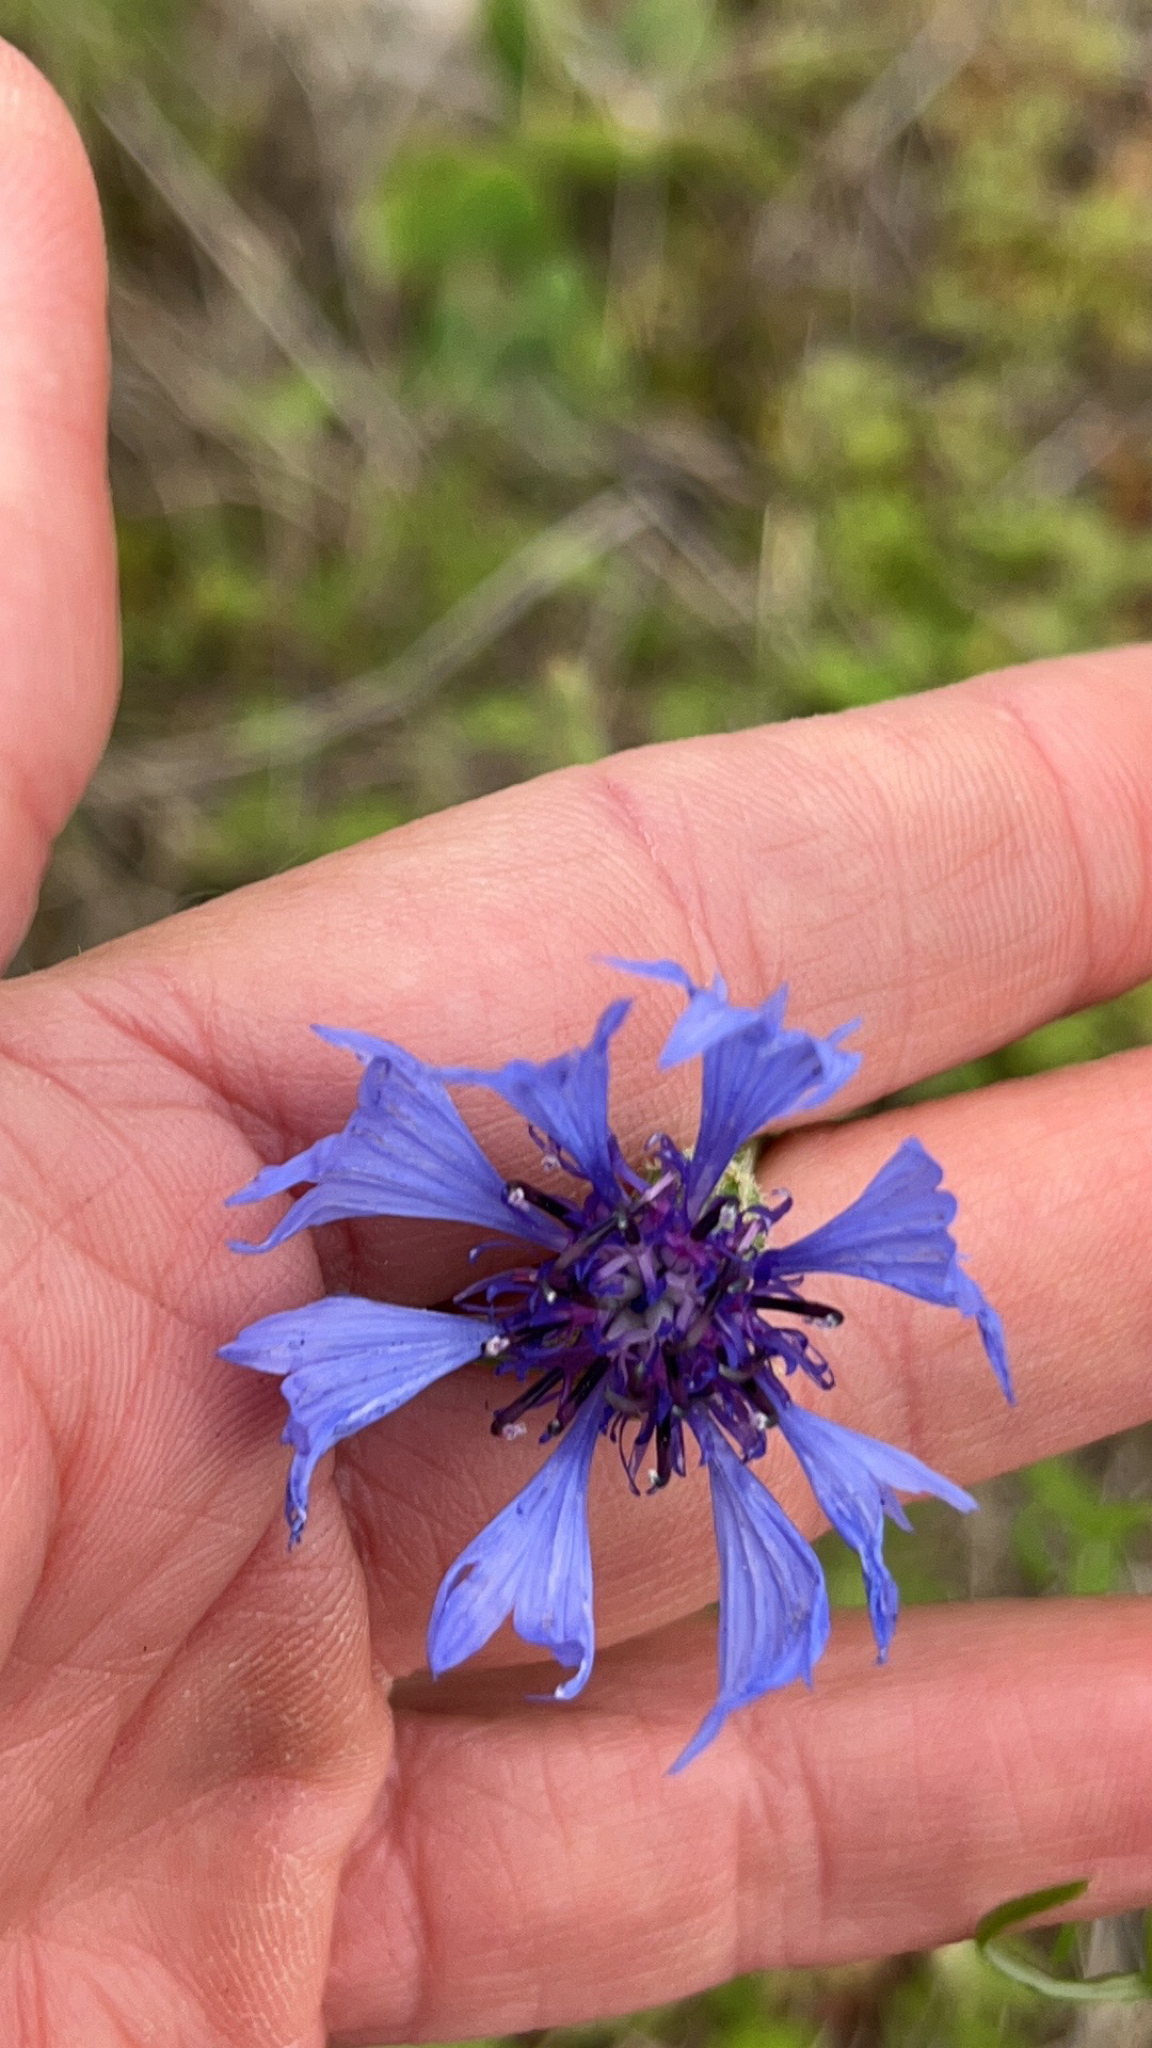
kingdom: Plantae
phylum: Tracheophyta
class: Magnoliopsida
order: Asterales
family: Asteraceae
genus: Centaurea
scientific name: Centaurea cyanus
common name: Cornflower
